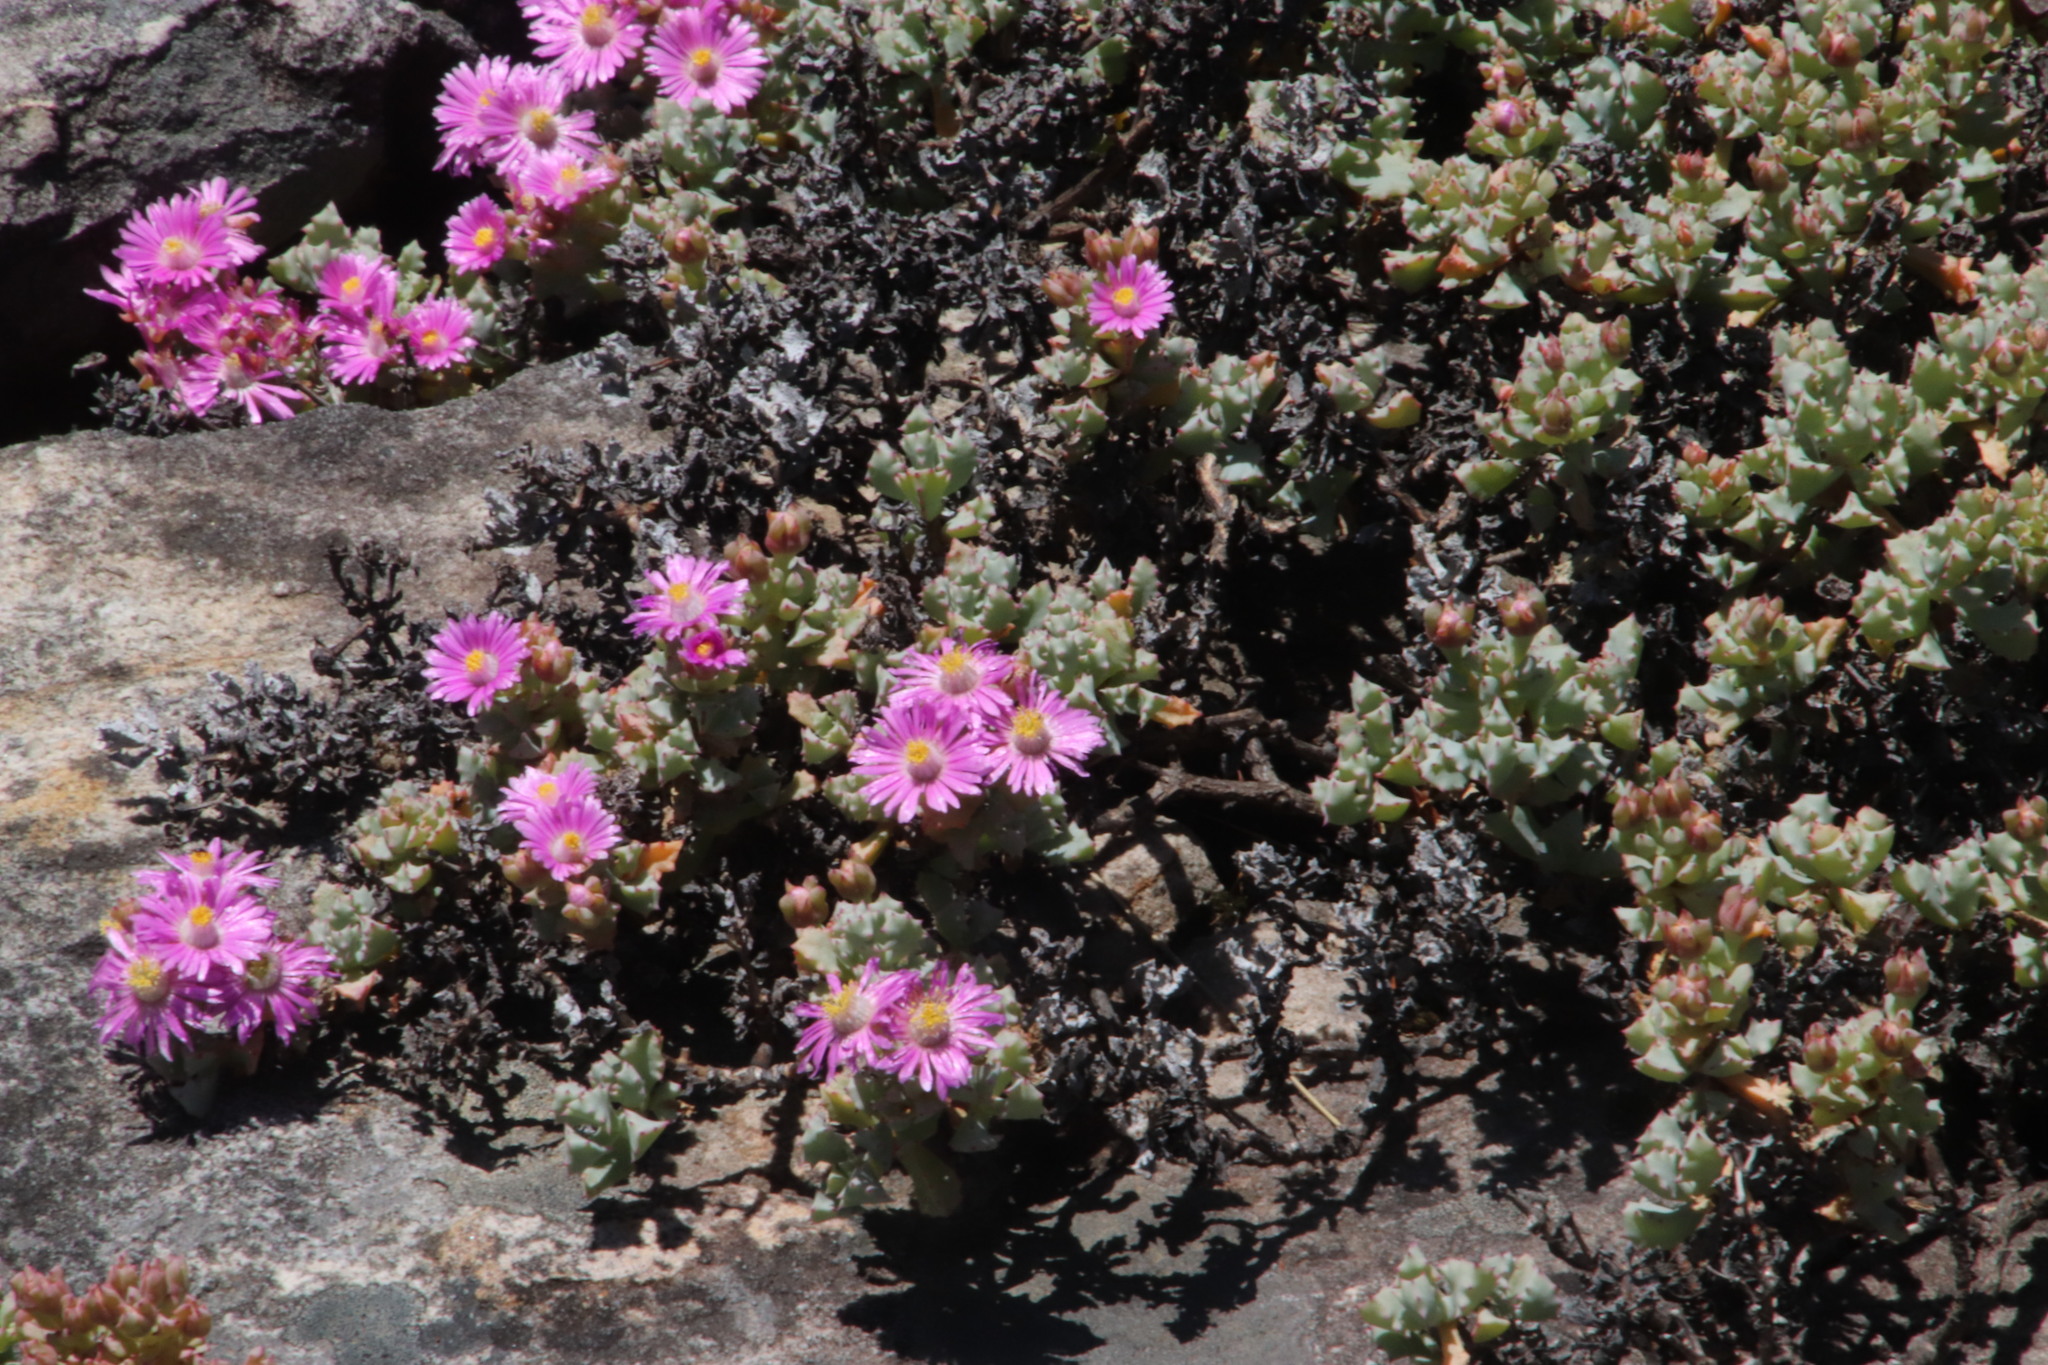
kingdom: Plantae
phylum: Tracheophyta
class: Magnoliopsida
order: Caryophyllales
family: Aizoaceae
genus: Oscularia
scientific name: Oscularia deltoides
